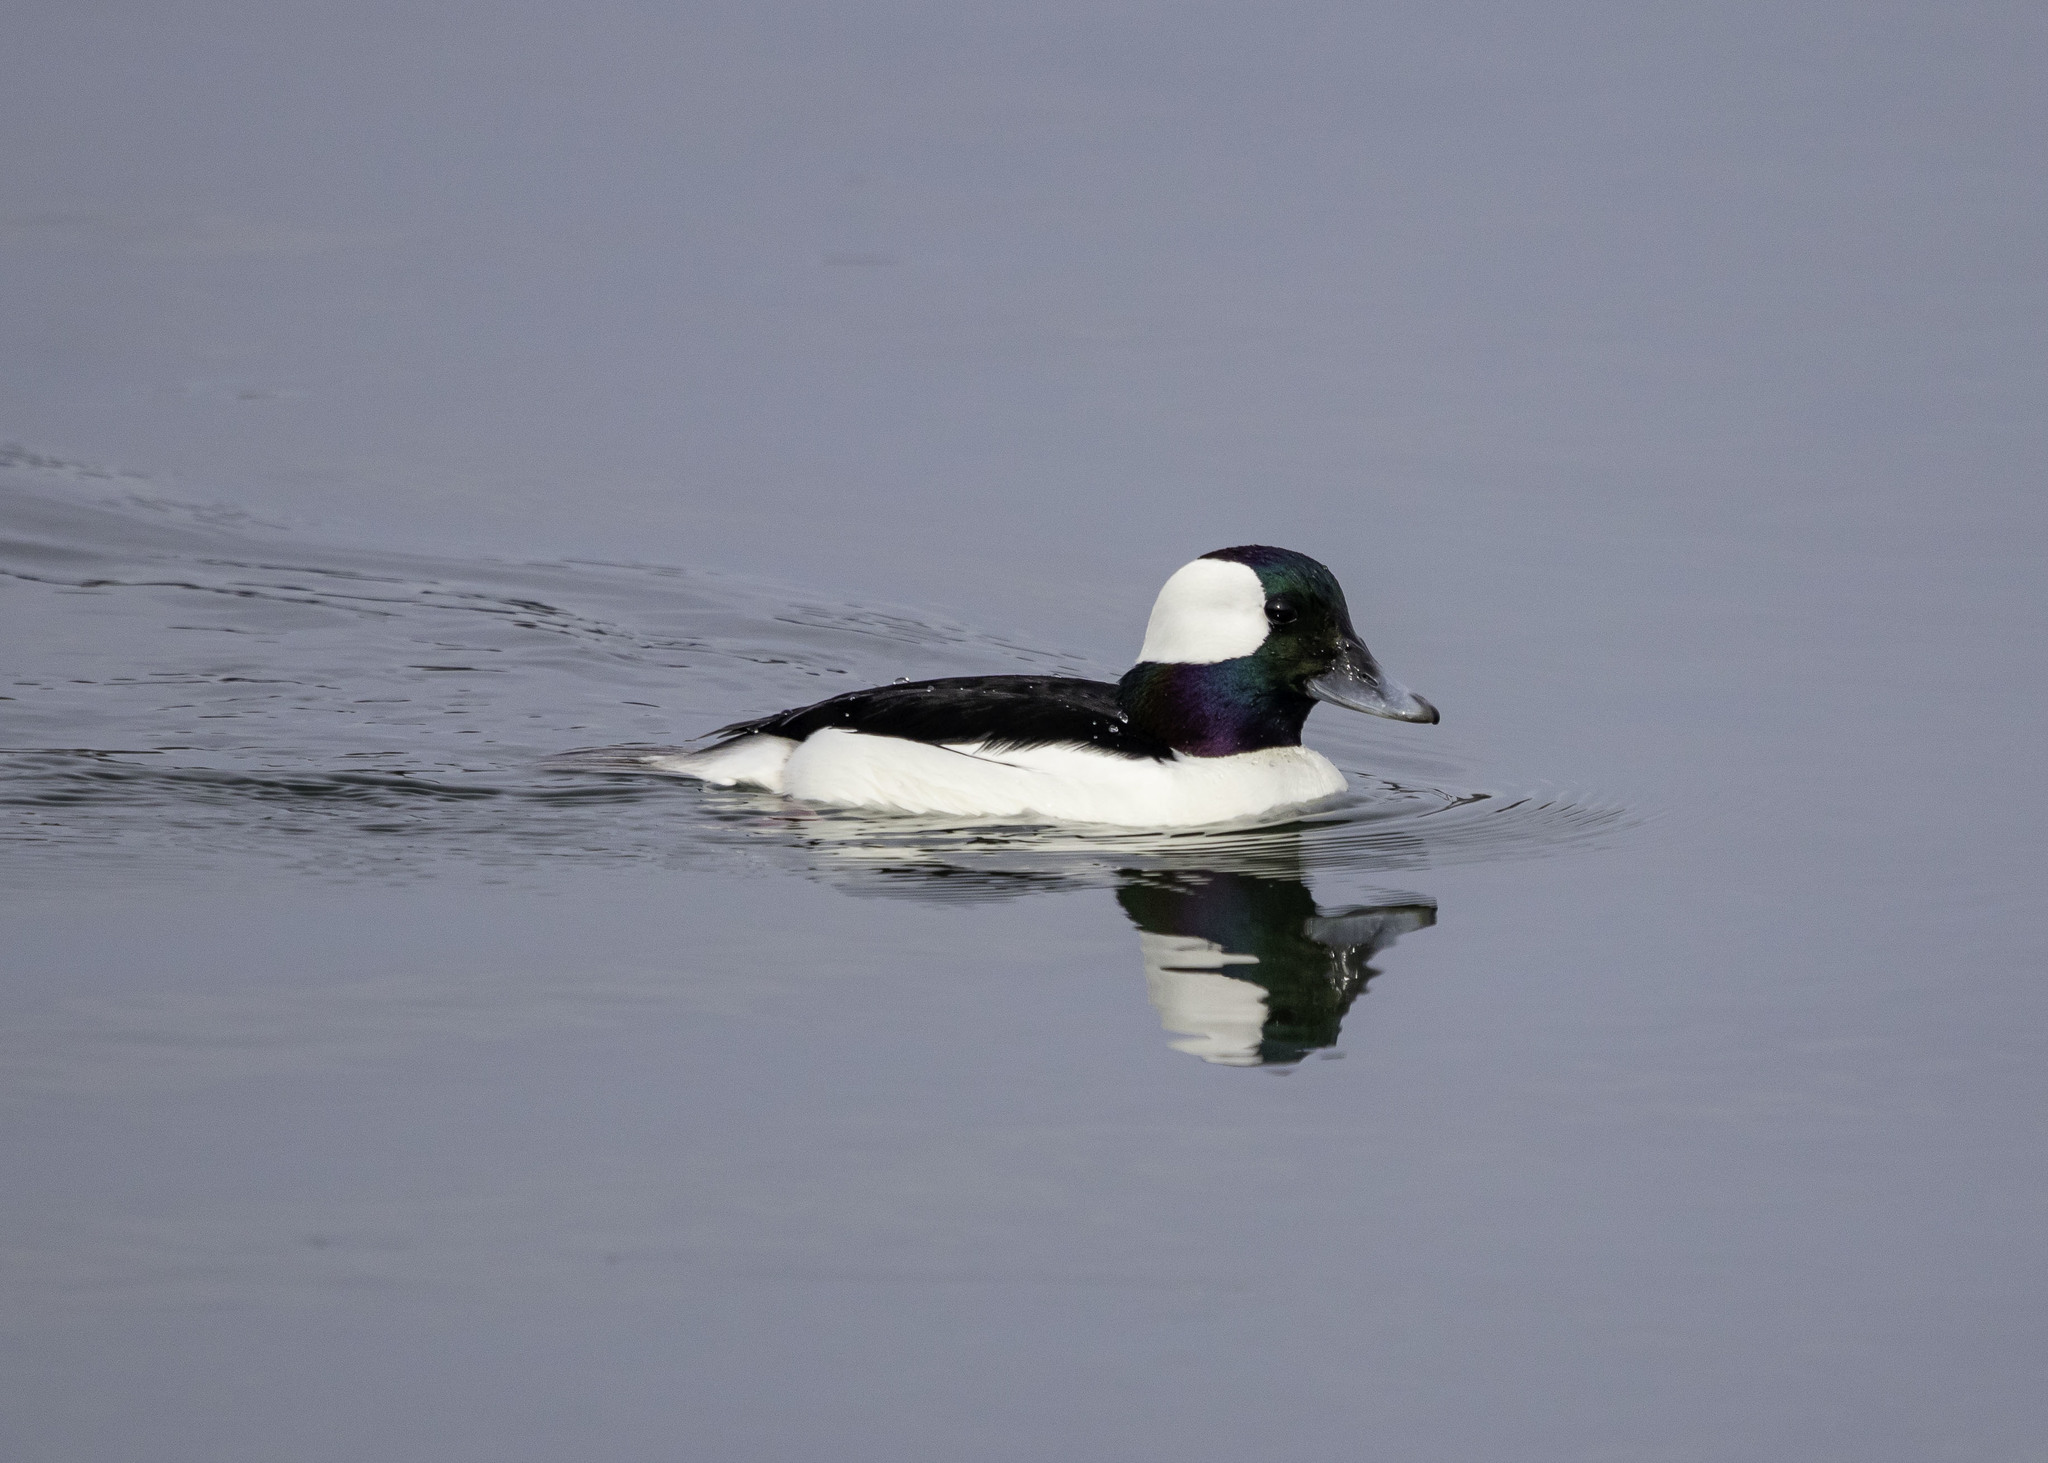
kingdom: Animalia
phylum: Chordata
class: Aves
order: Anseriformes
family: Anatidae
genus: Bucephala
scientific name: Bucephala albeola
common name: Bufflehead
